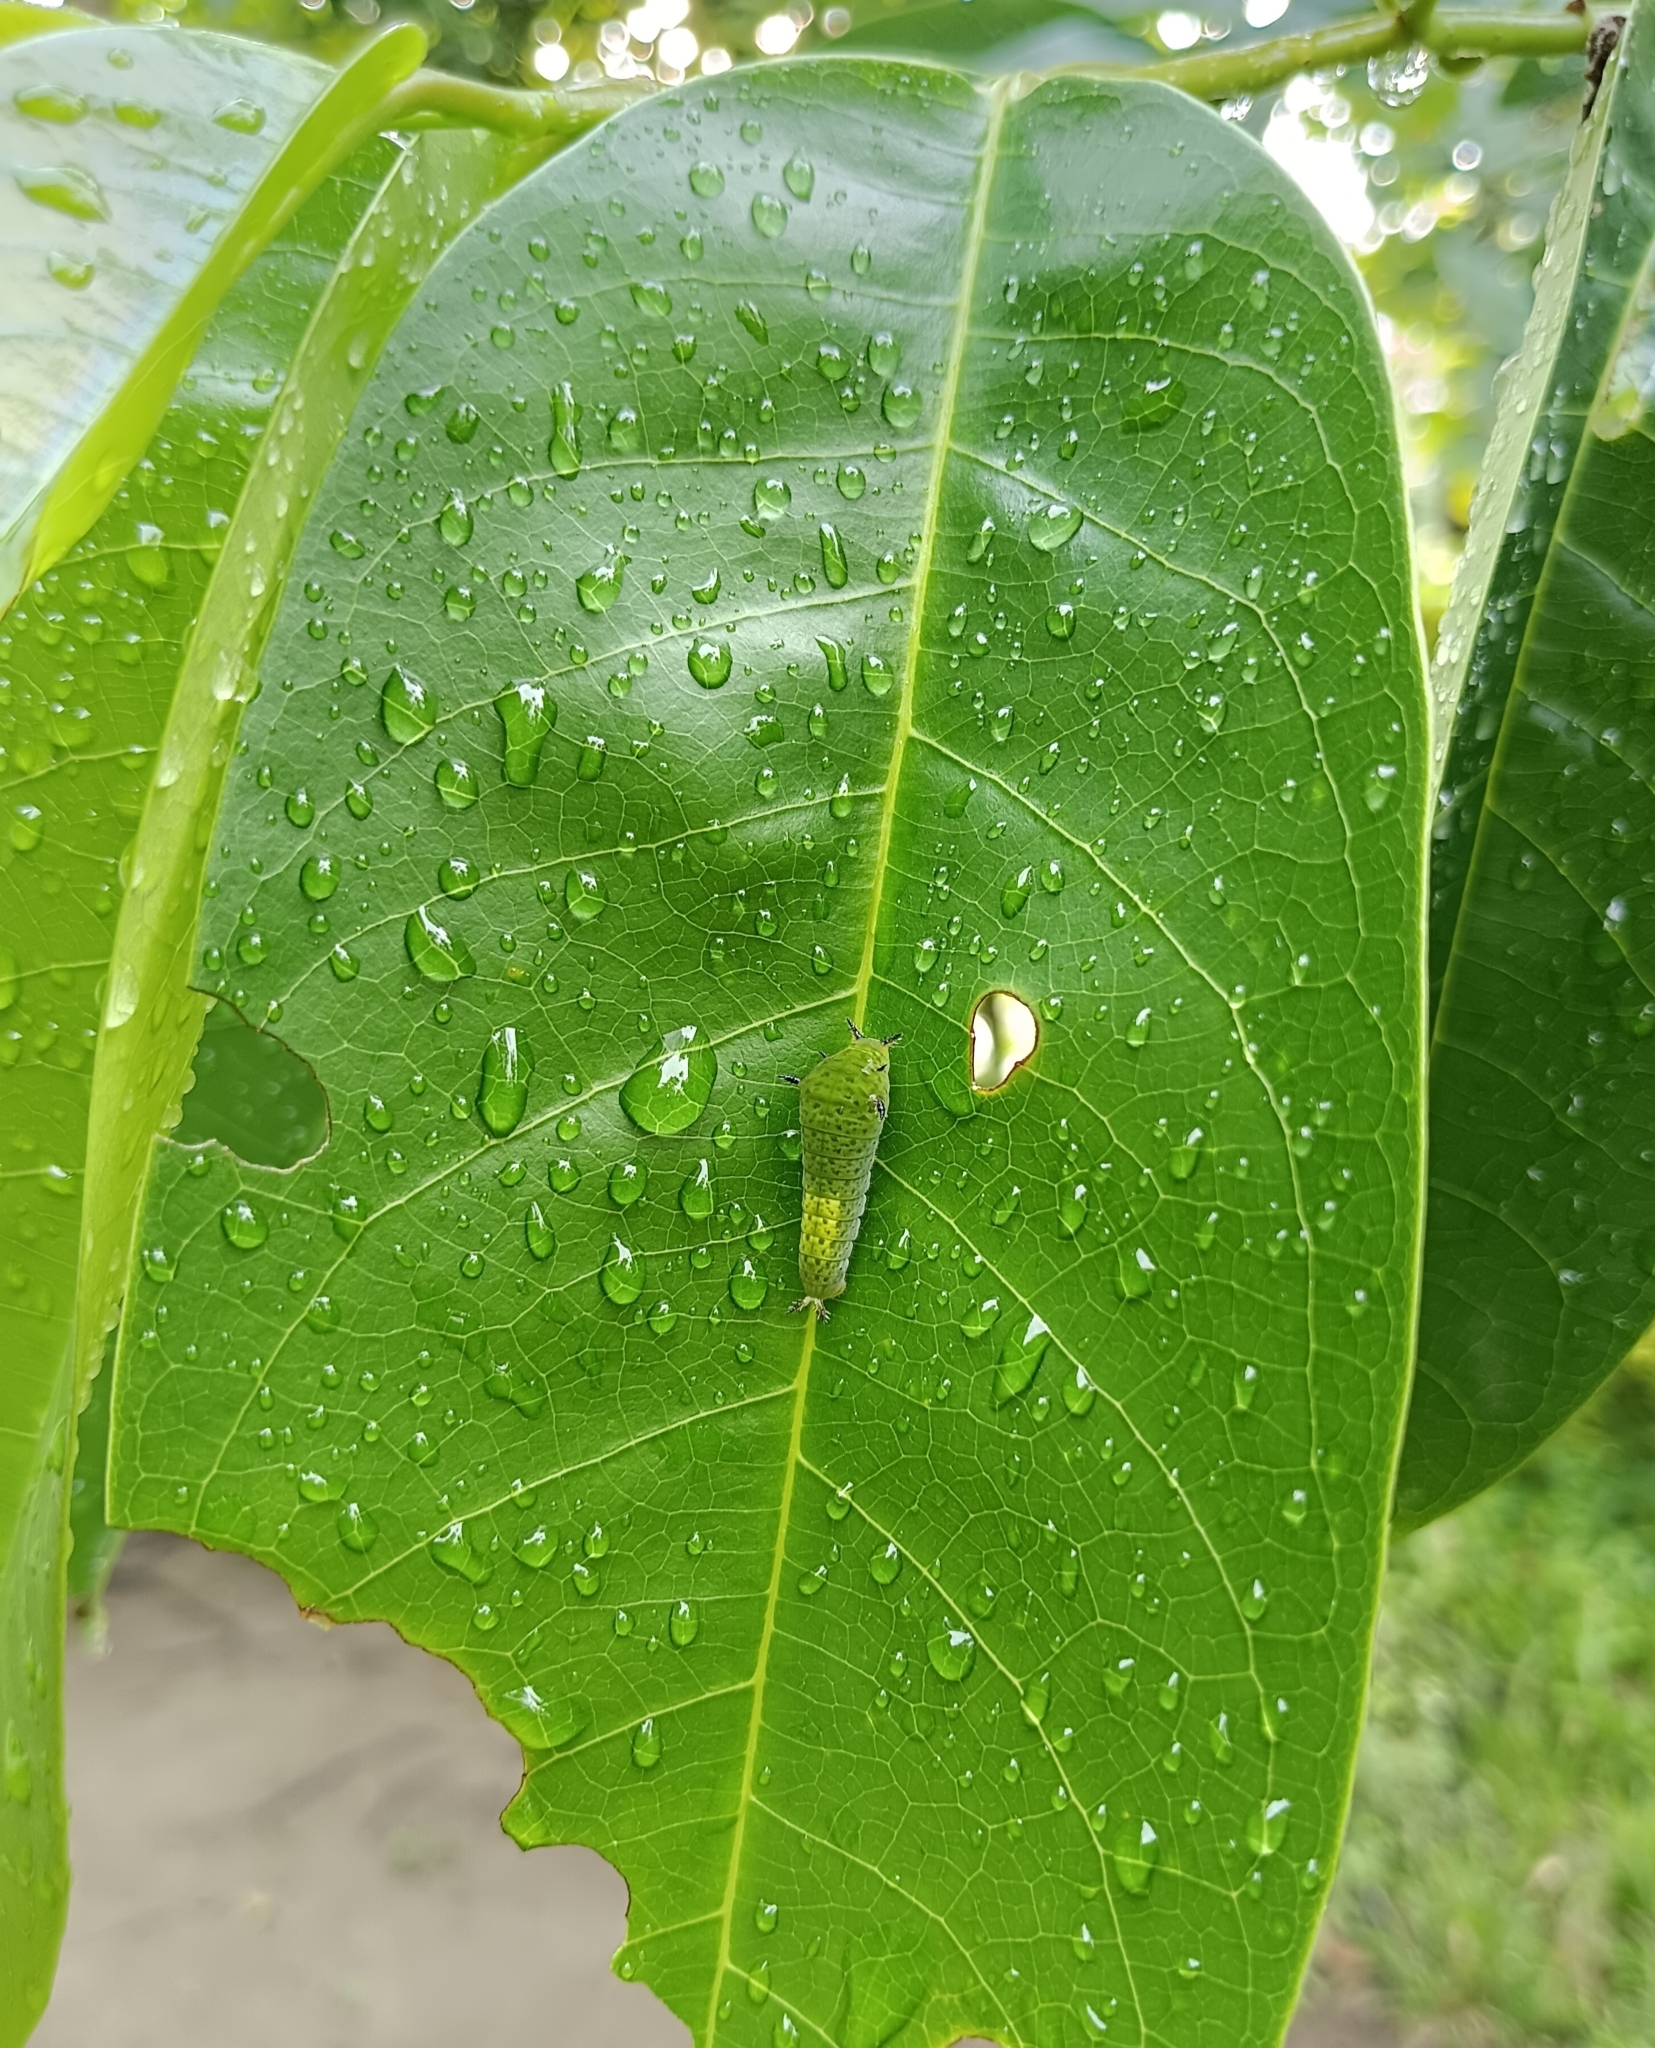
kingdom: Animalia
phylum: Arthropoda
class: Insecta
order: Lepidoptera
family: Papilionidae
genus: Graphium
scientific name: Graphium agamemnon
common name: Tailed jay
